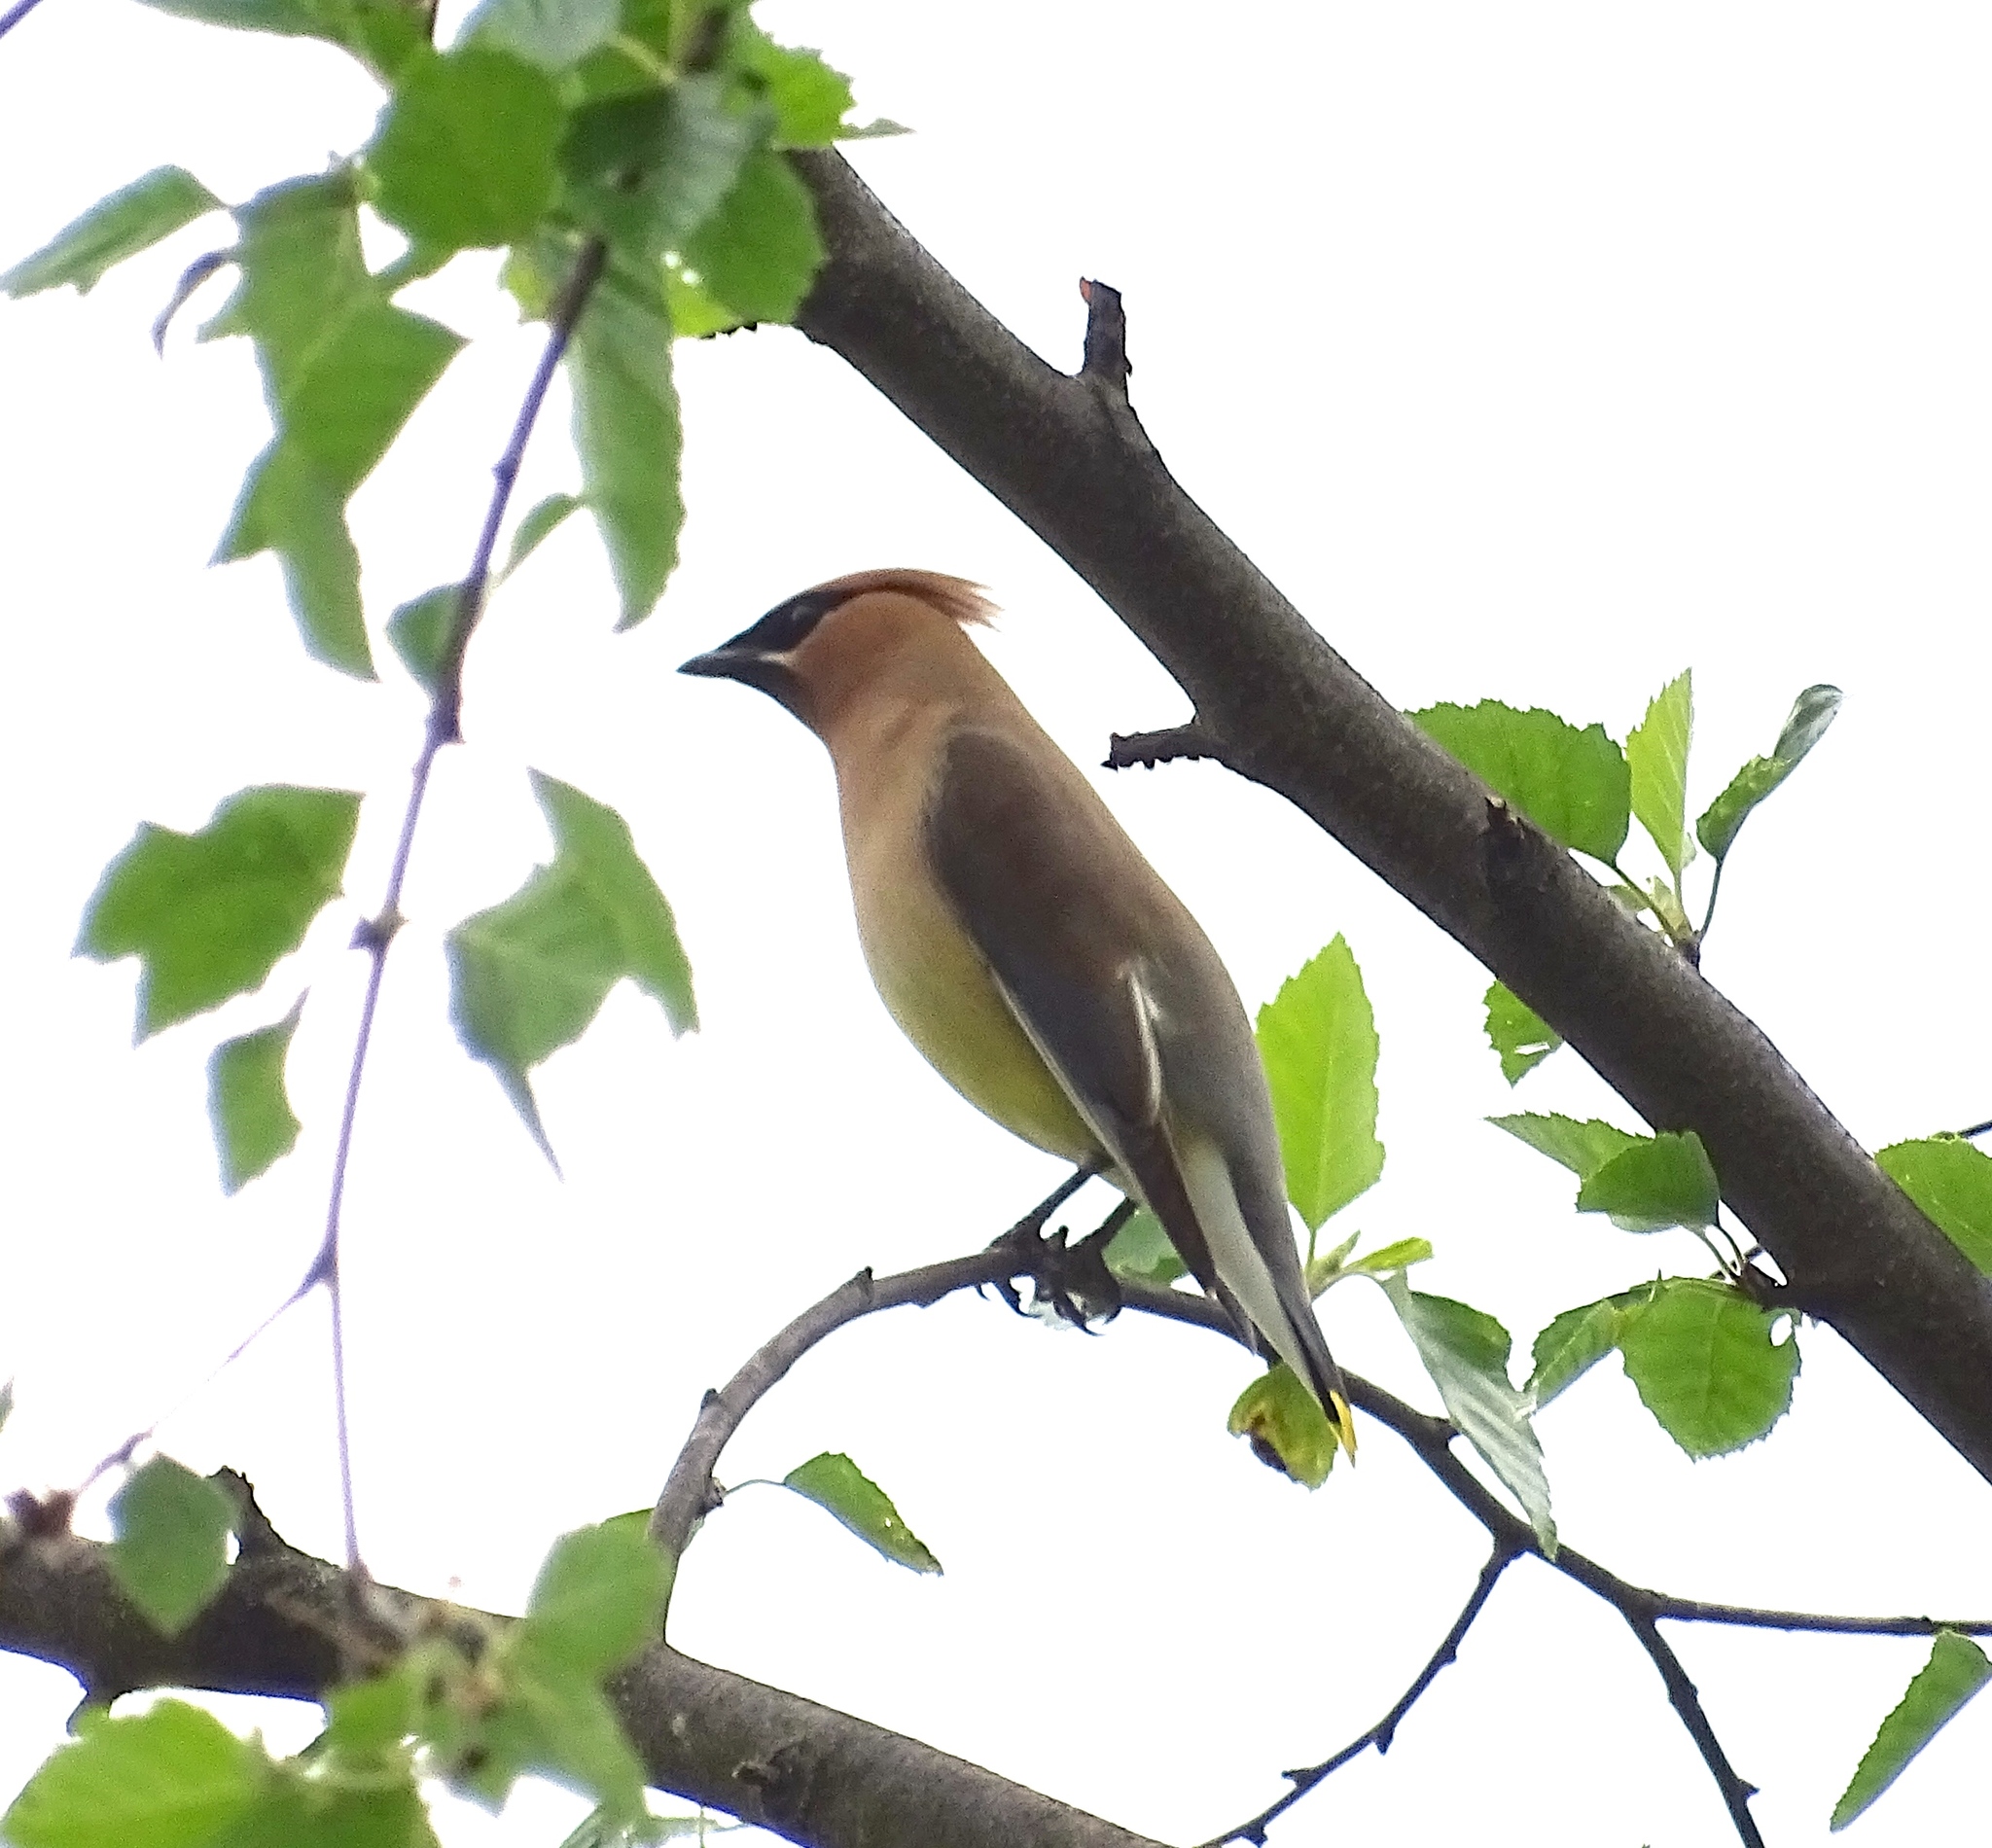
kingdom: Animalia
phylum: Chordata
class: Aves
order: Passeriformes
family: Bombycillidae
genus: Bombycilla
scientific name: Bombycilla cedrorum
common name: Cedar waxwing
